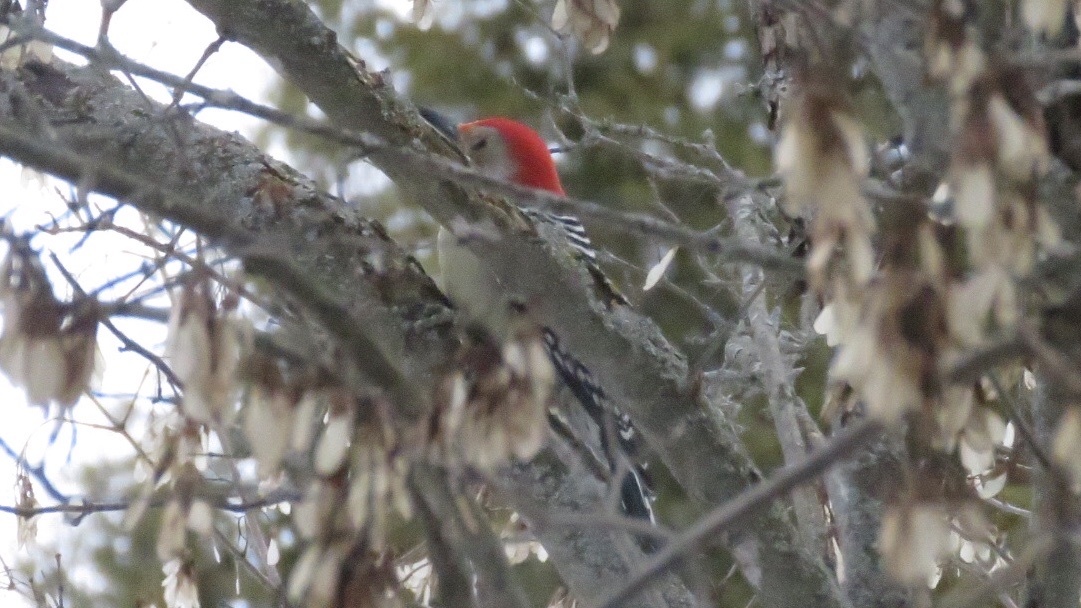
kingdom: Animalia
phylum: Chordata
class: Aves
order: Piciformes
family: Picidae
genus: Melanerpes
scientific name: Melanerpes carolinus
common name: Red-bellied woodpecker
